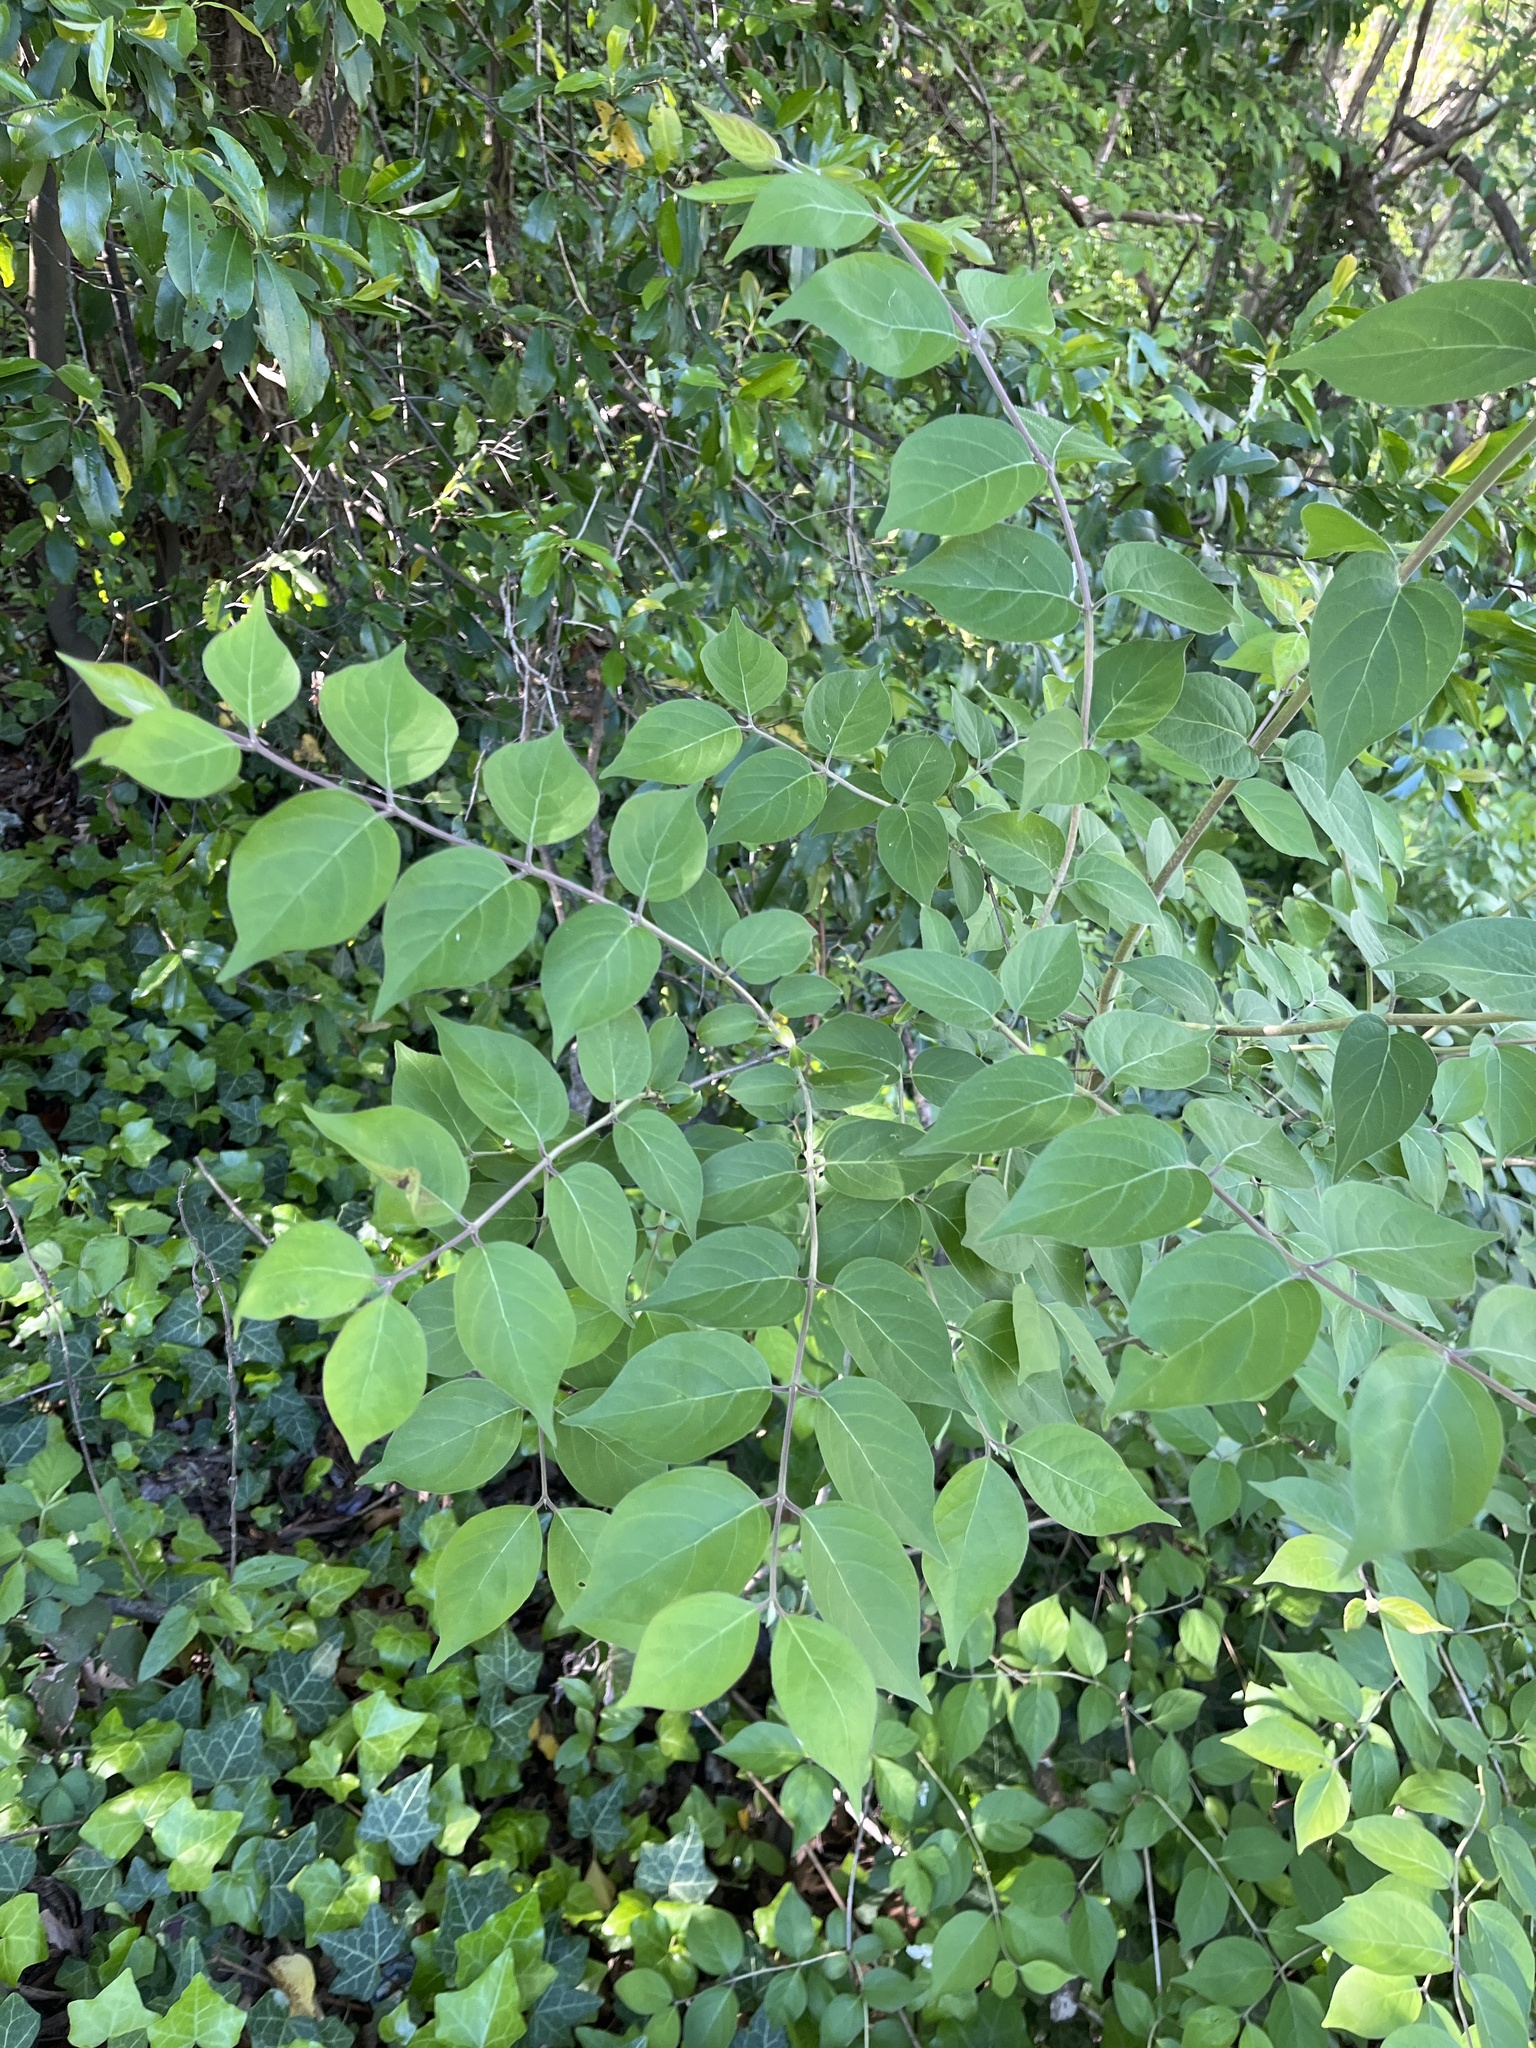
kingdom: Plantae
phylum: Tracheophyta
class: Magnoliopsida
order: Dipsacales
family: Caprifoliaceae
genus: Lonicera
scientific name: Lonicera maackii
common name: Amur honeysuckle
